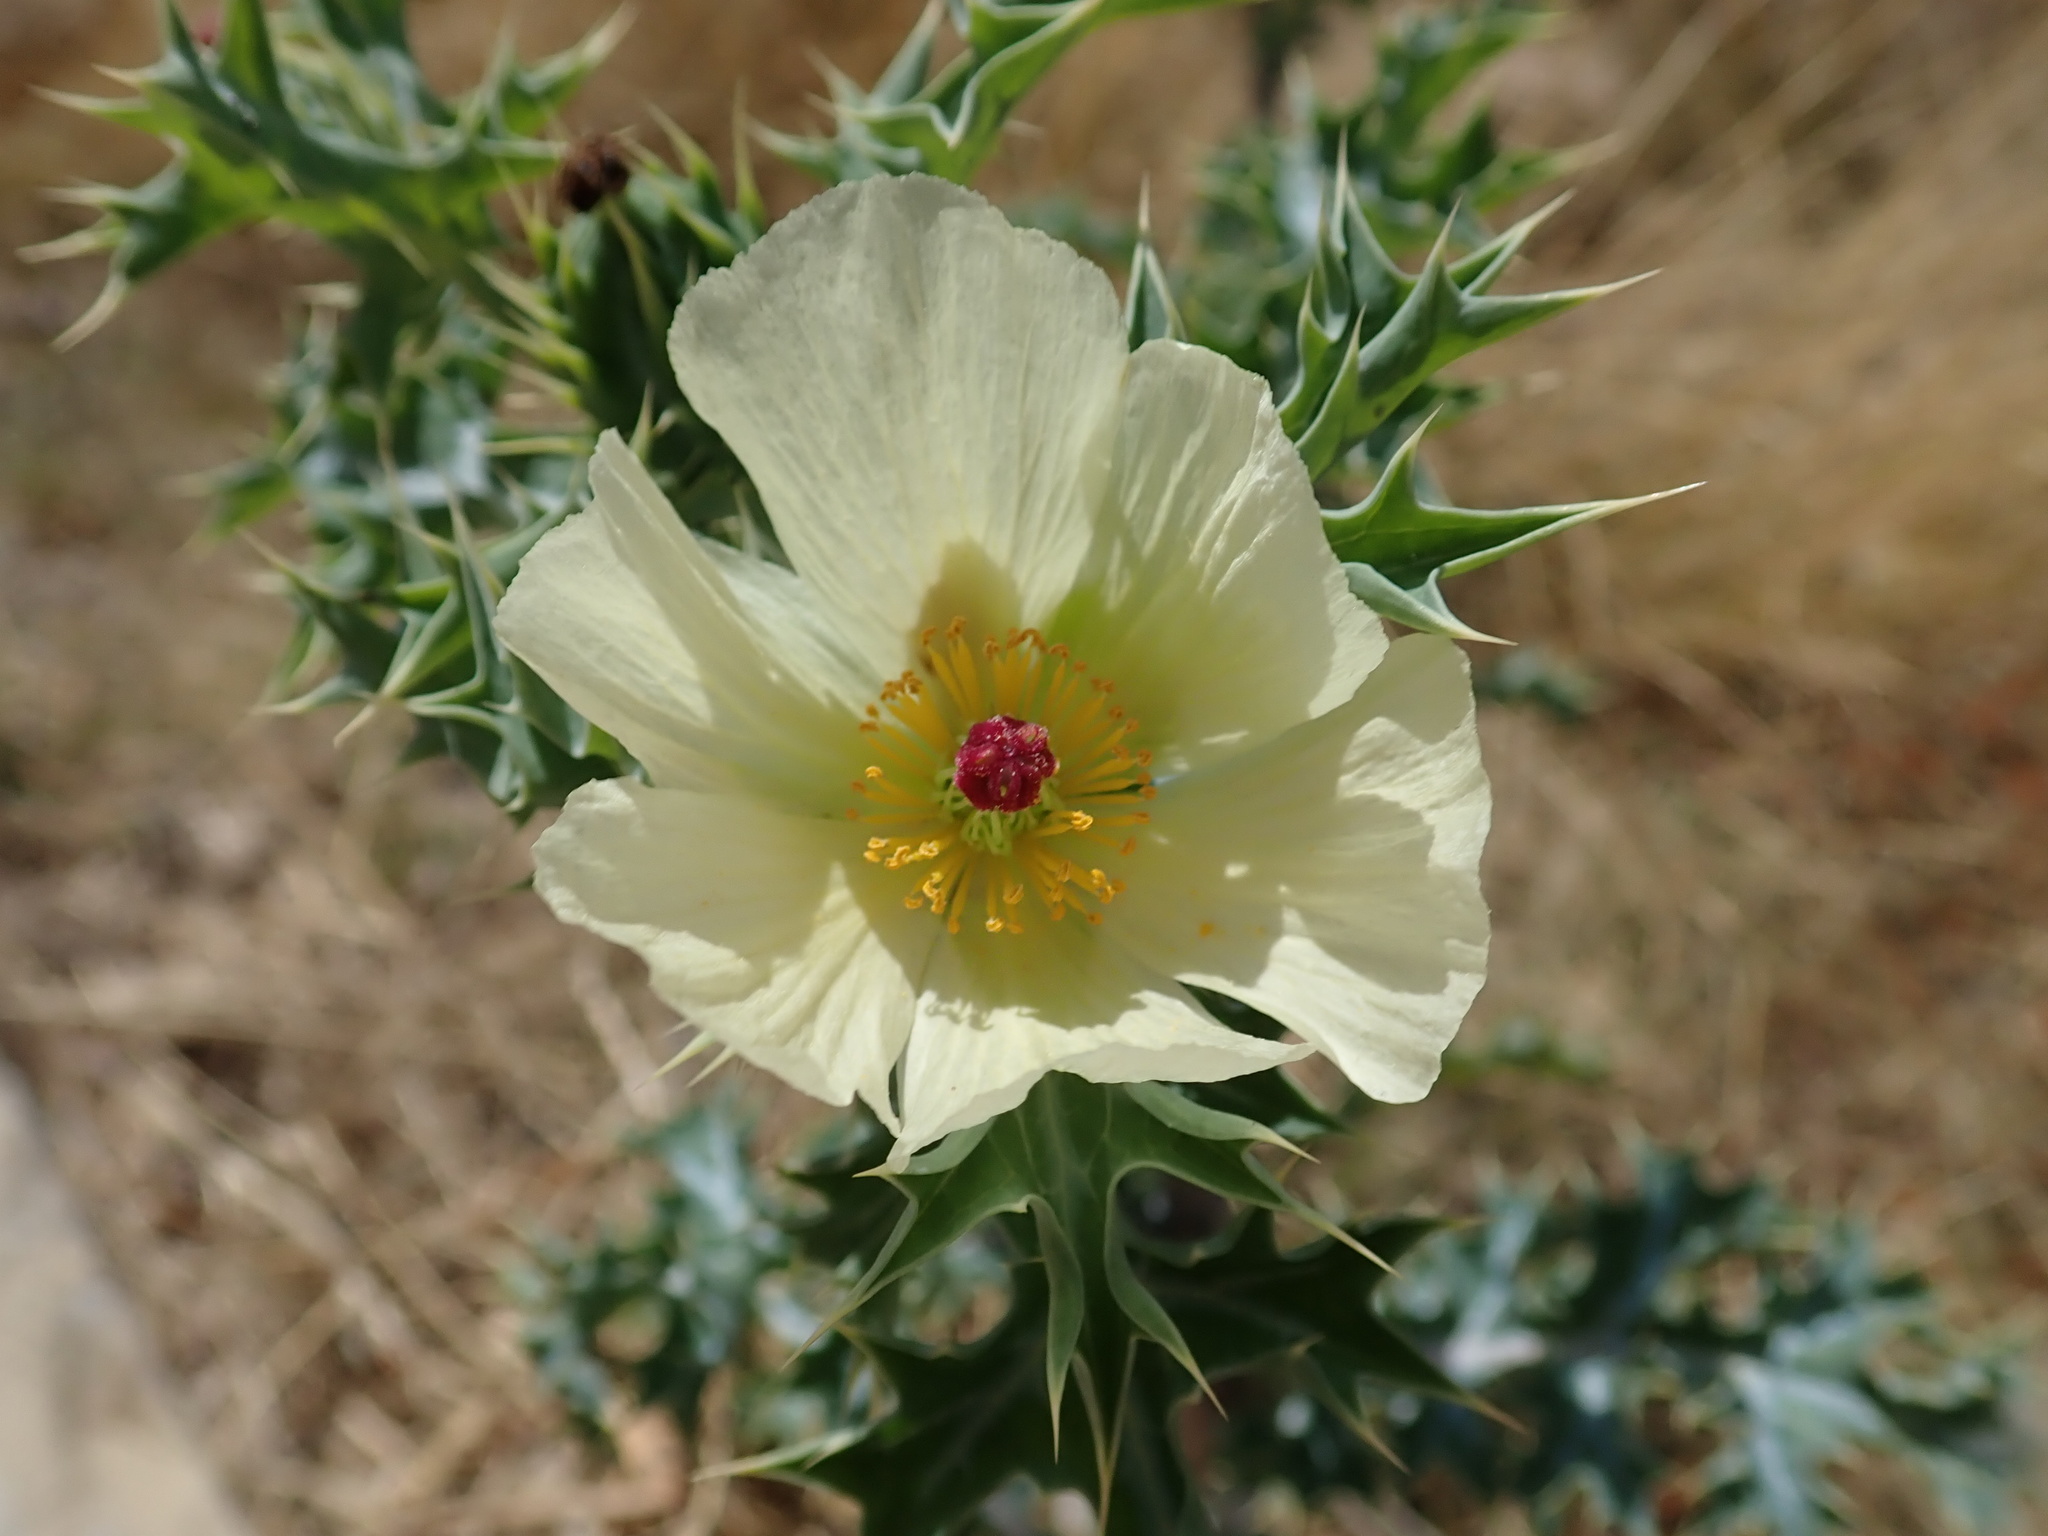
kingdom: Plantae
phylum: Tracheophyta
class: Magnoliopsida
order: Ranunculales
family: Papaveraceae
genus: Argemone
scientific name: Argemone ochroleuca
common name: White-flower mexican-poppy
